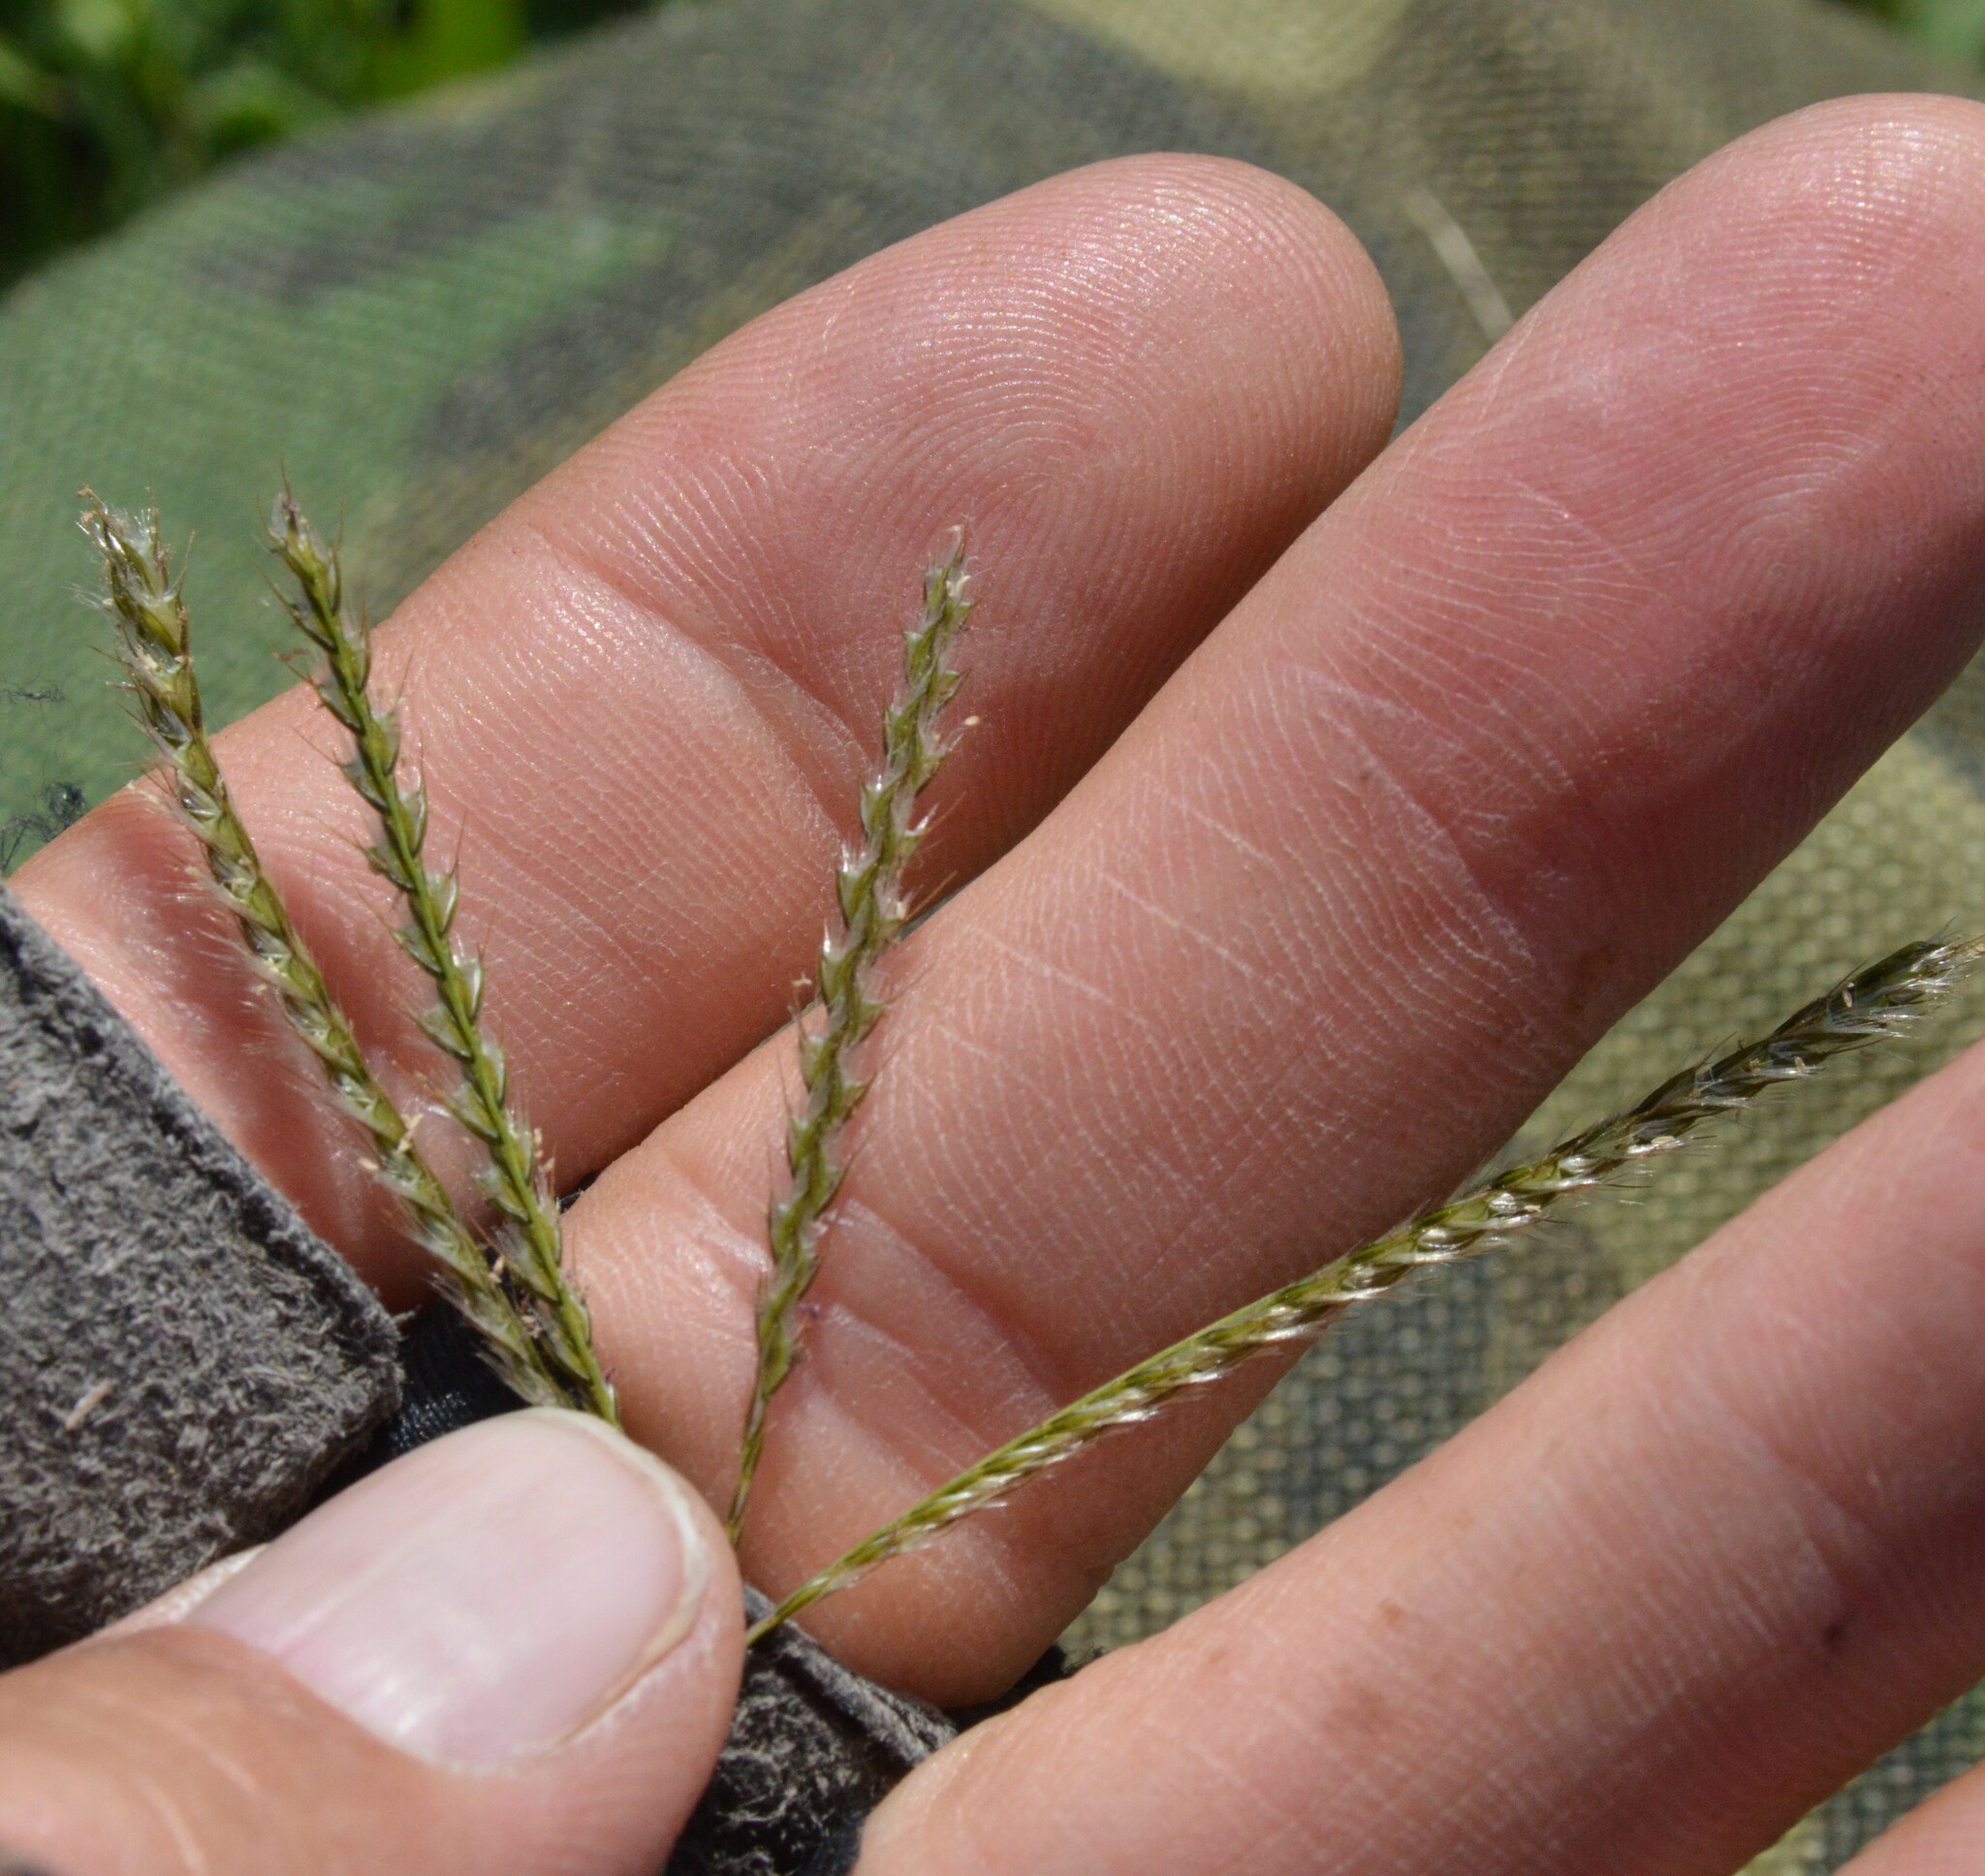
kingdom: Plantae
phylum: Tracheophyta
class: Liliopsida
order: Poales
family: Poaceae
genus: Stapfochloa
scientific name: Stapfochloa canterae
